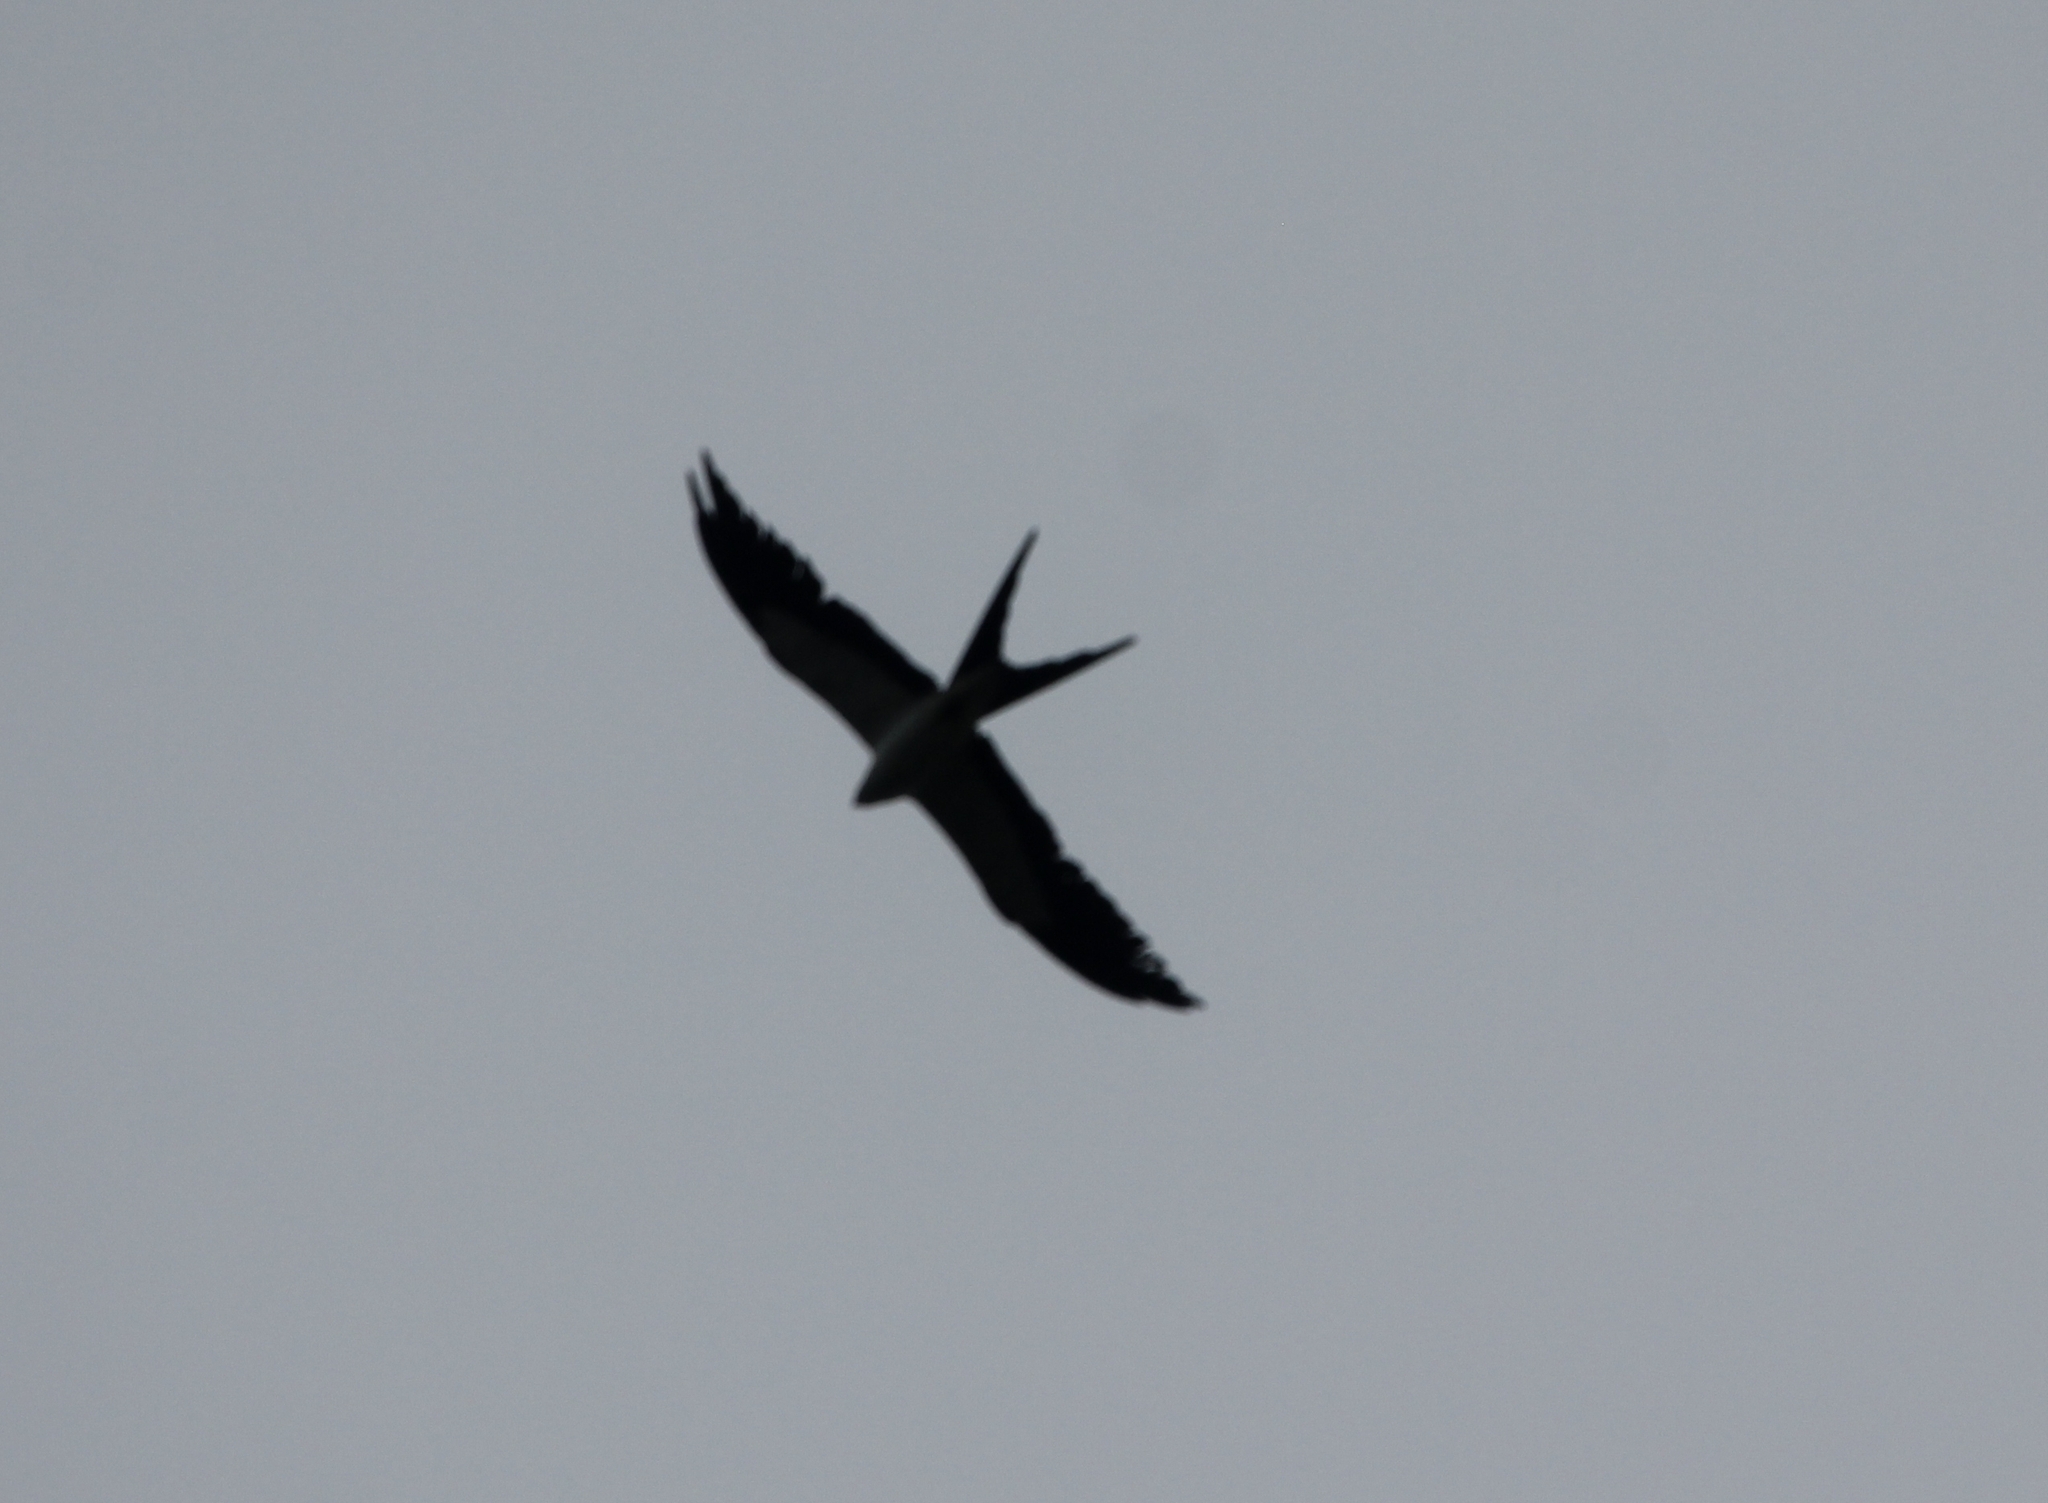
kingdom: Animalia
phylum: Chordata
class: Aves
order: Accipitriformes
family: Accipitridae
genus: Elanoides
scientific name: Elanoides forficatus
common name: Swallow-tailed kite
